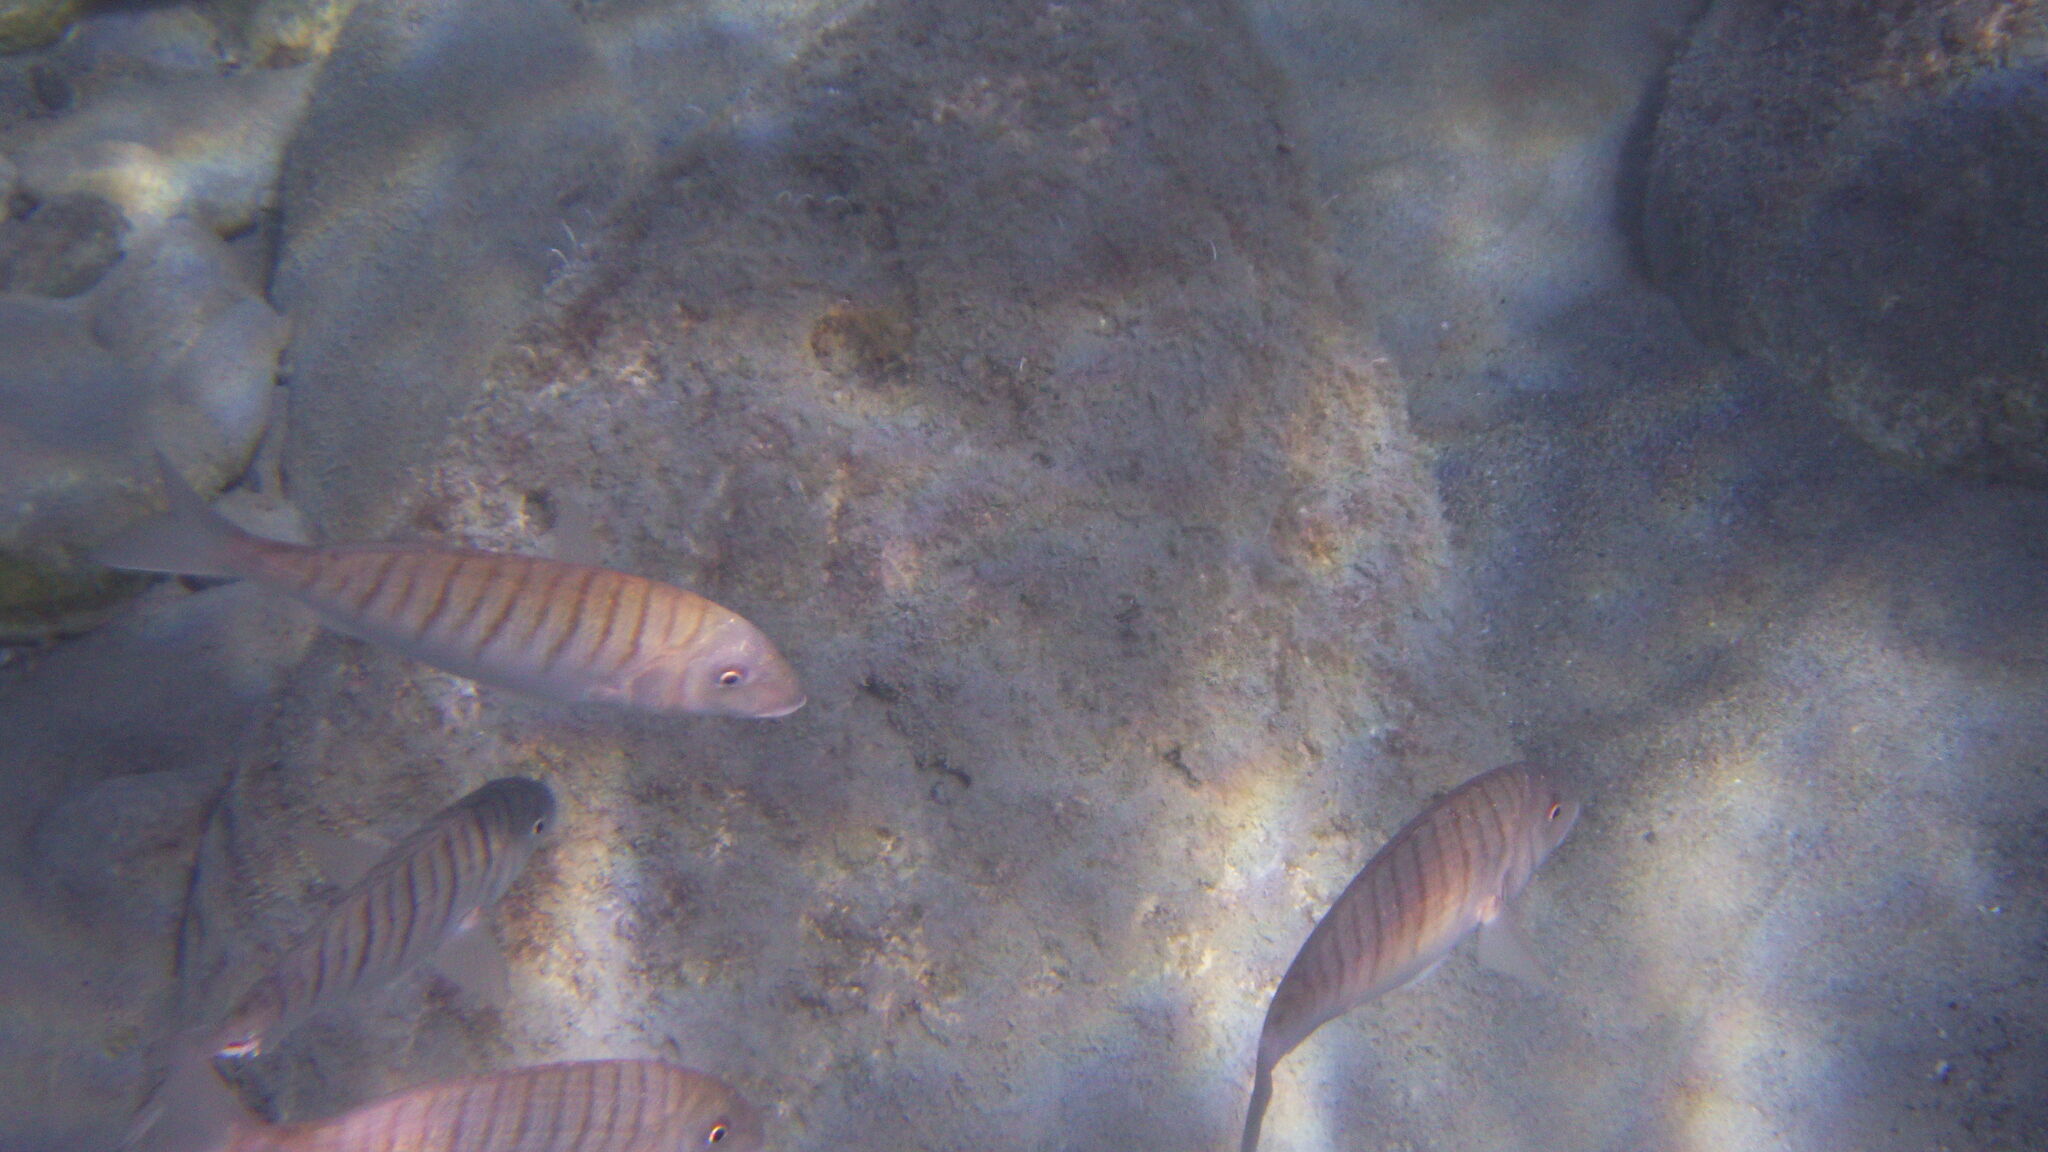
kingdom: Animalia
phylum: Chordata
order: Perciformes
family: Sparidae
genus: Lithognathus
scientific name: Lithognathus mormyrus
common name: Sand steenbras
